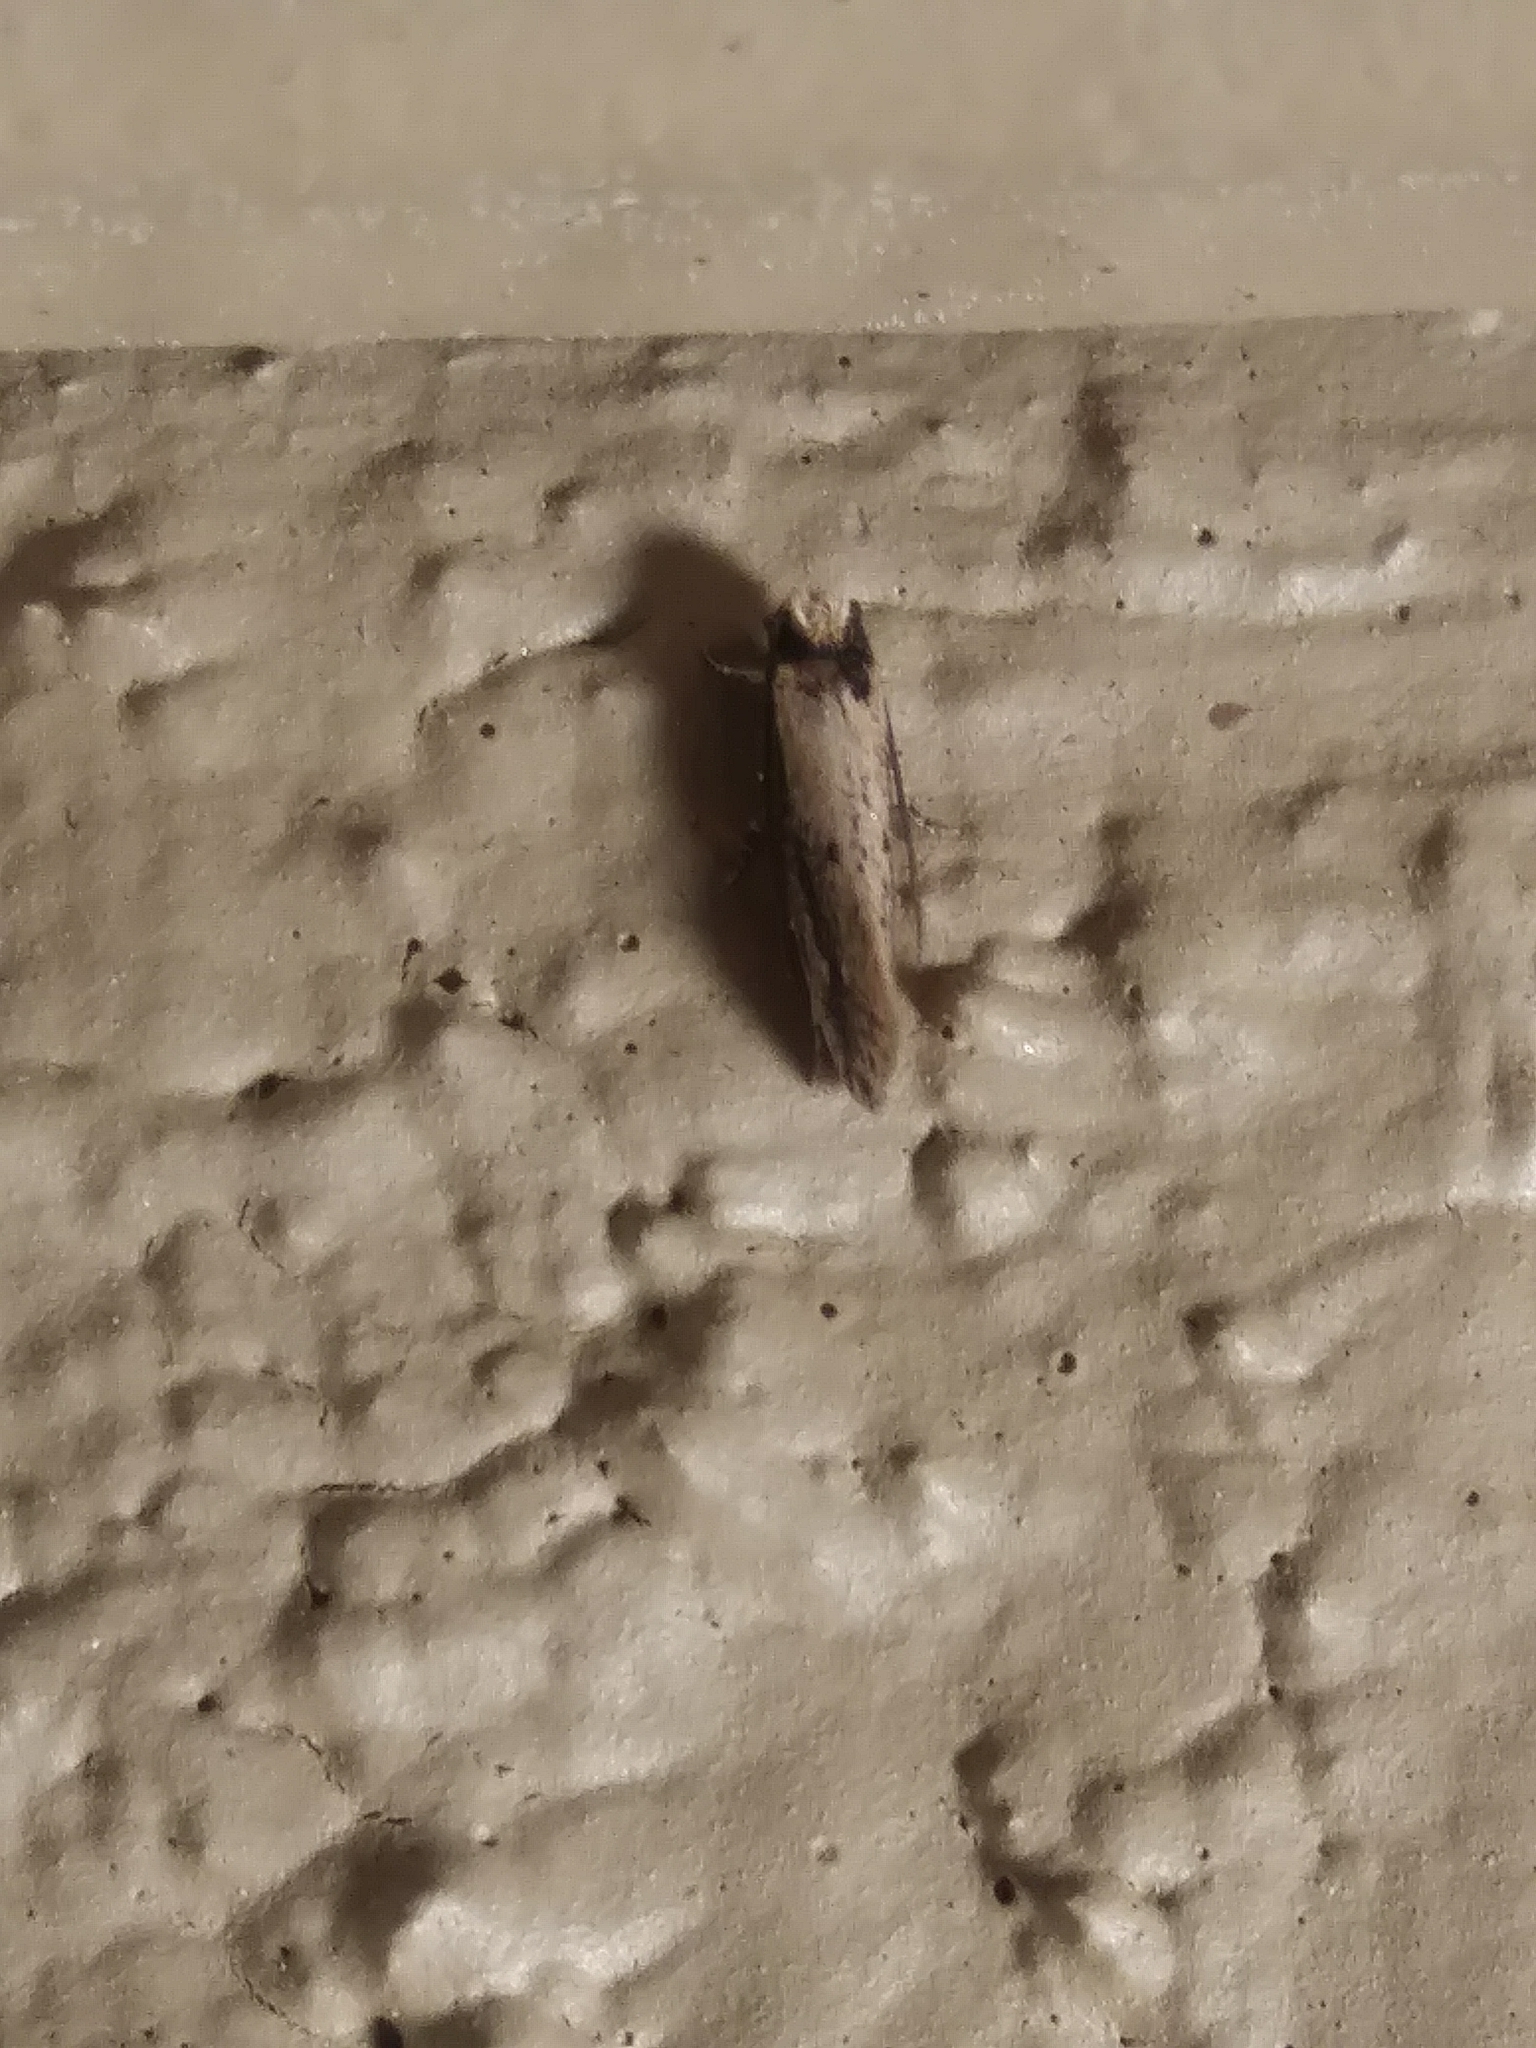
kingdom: Animalia
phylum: Arthropoda
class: Insecta
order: Lepidoptera
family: Tineidae
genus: Tinea
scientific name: Tinea apicimaculella
